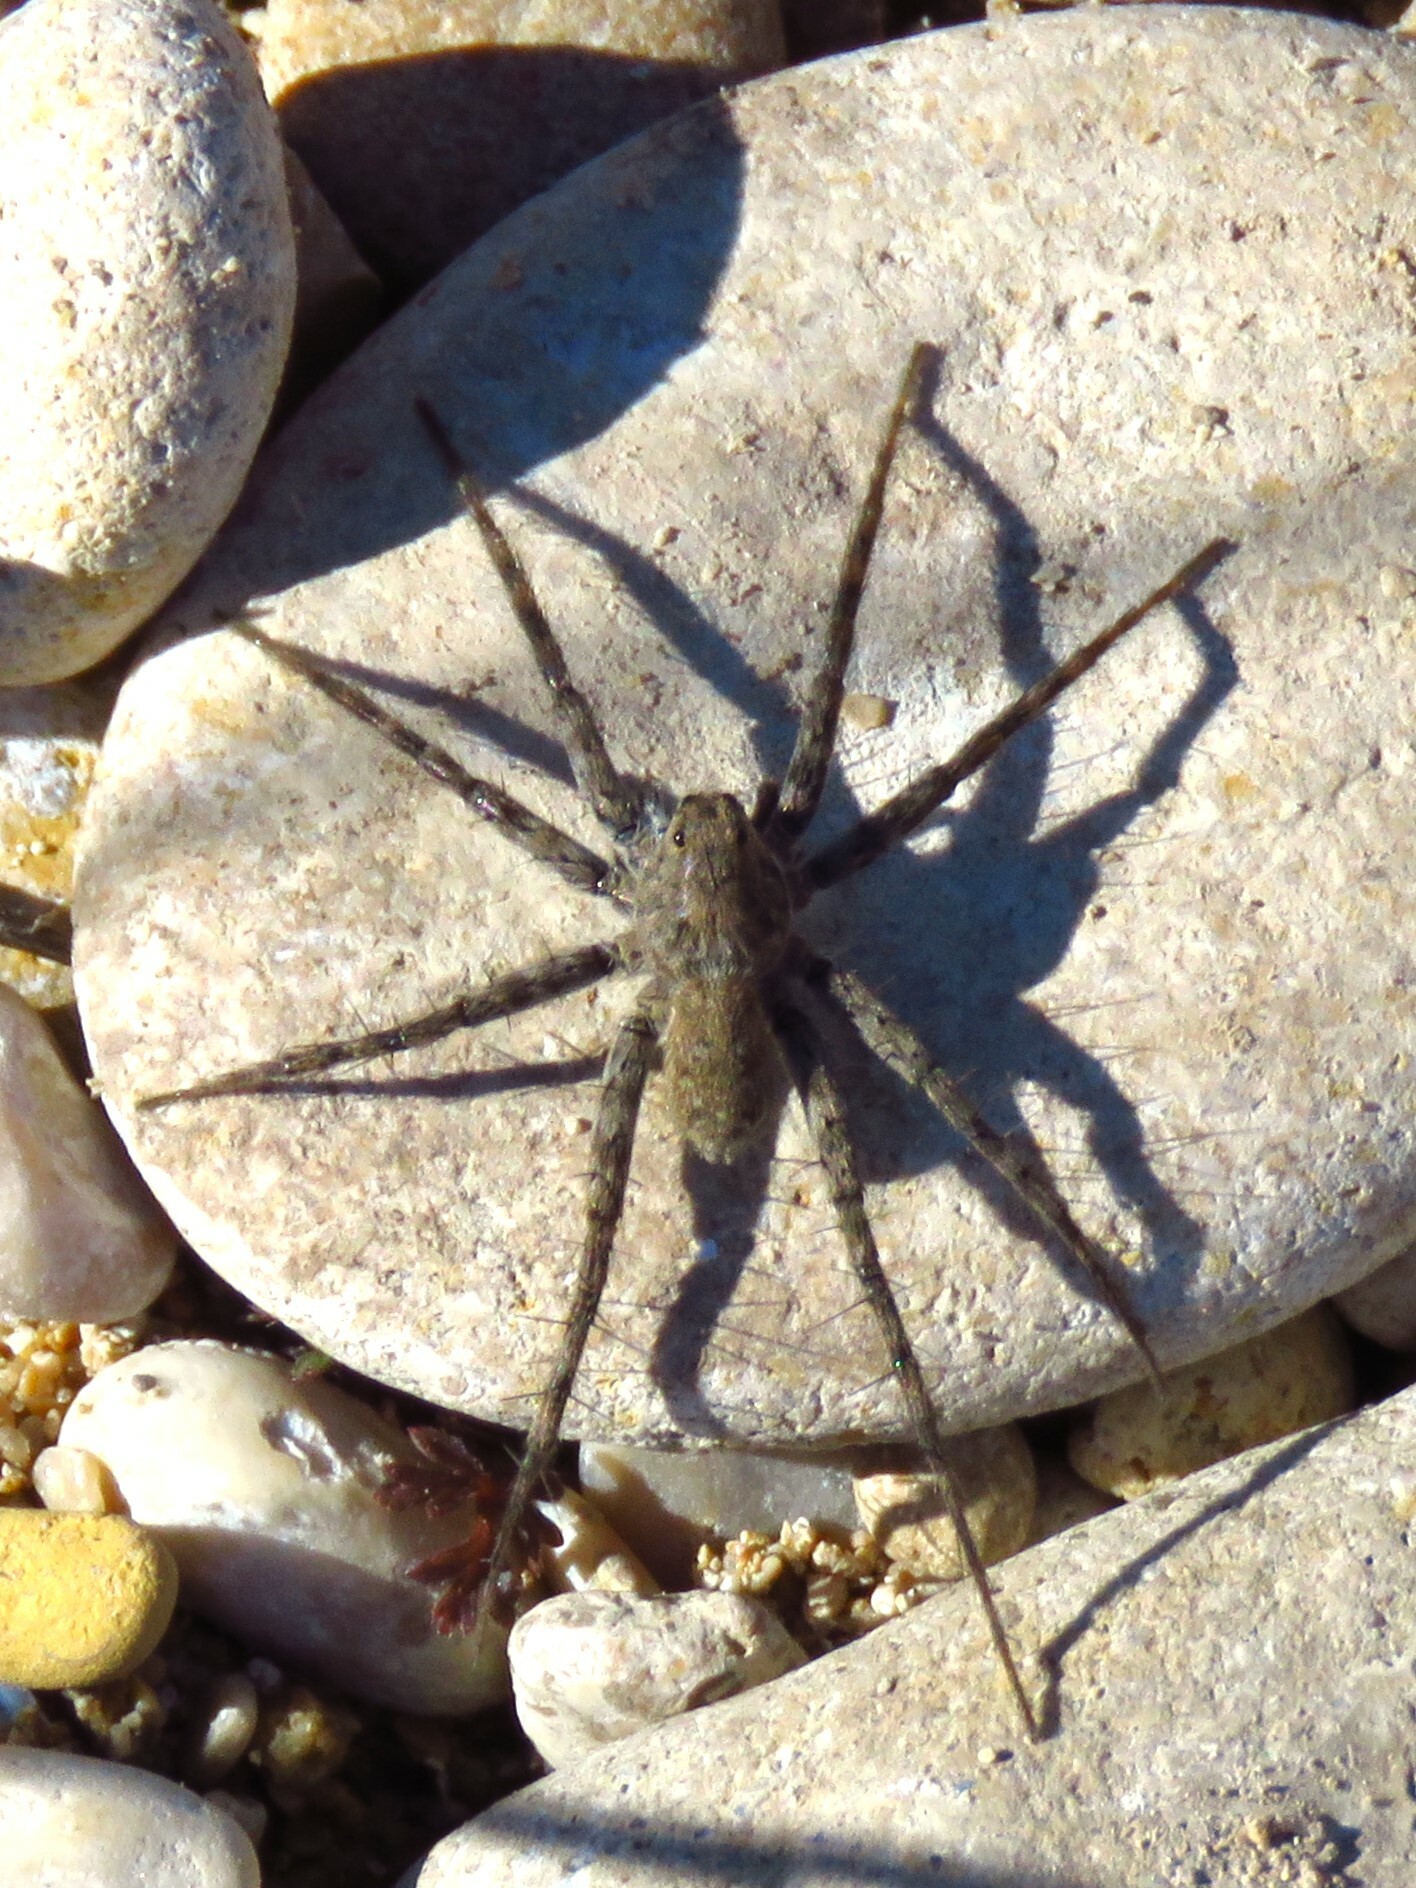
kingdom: Animalia
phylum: Arthropoda
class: Arachnida
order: Araneae
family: Lycosidae
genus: Pardosa
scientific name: Pardosa mercurialis
